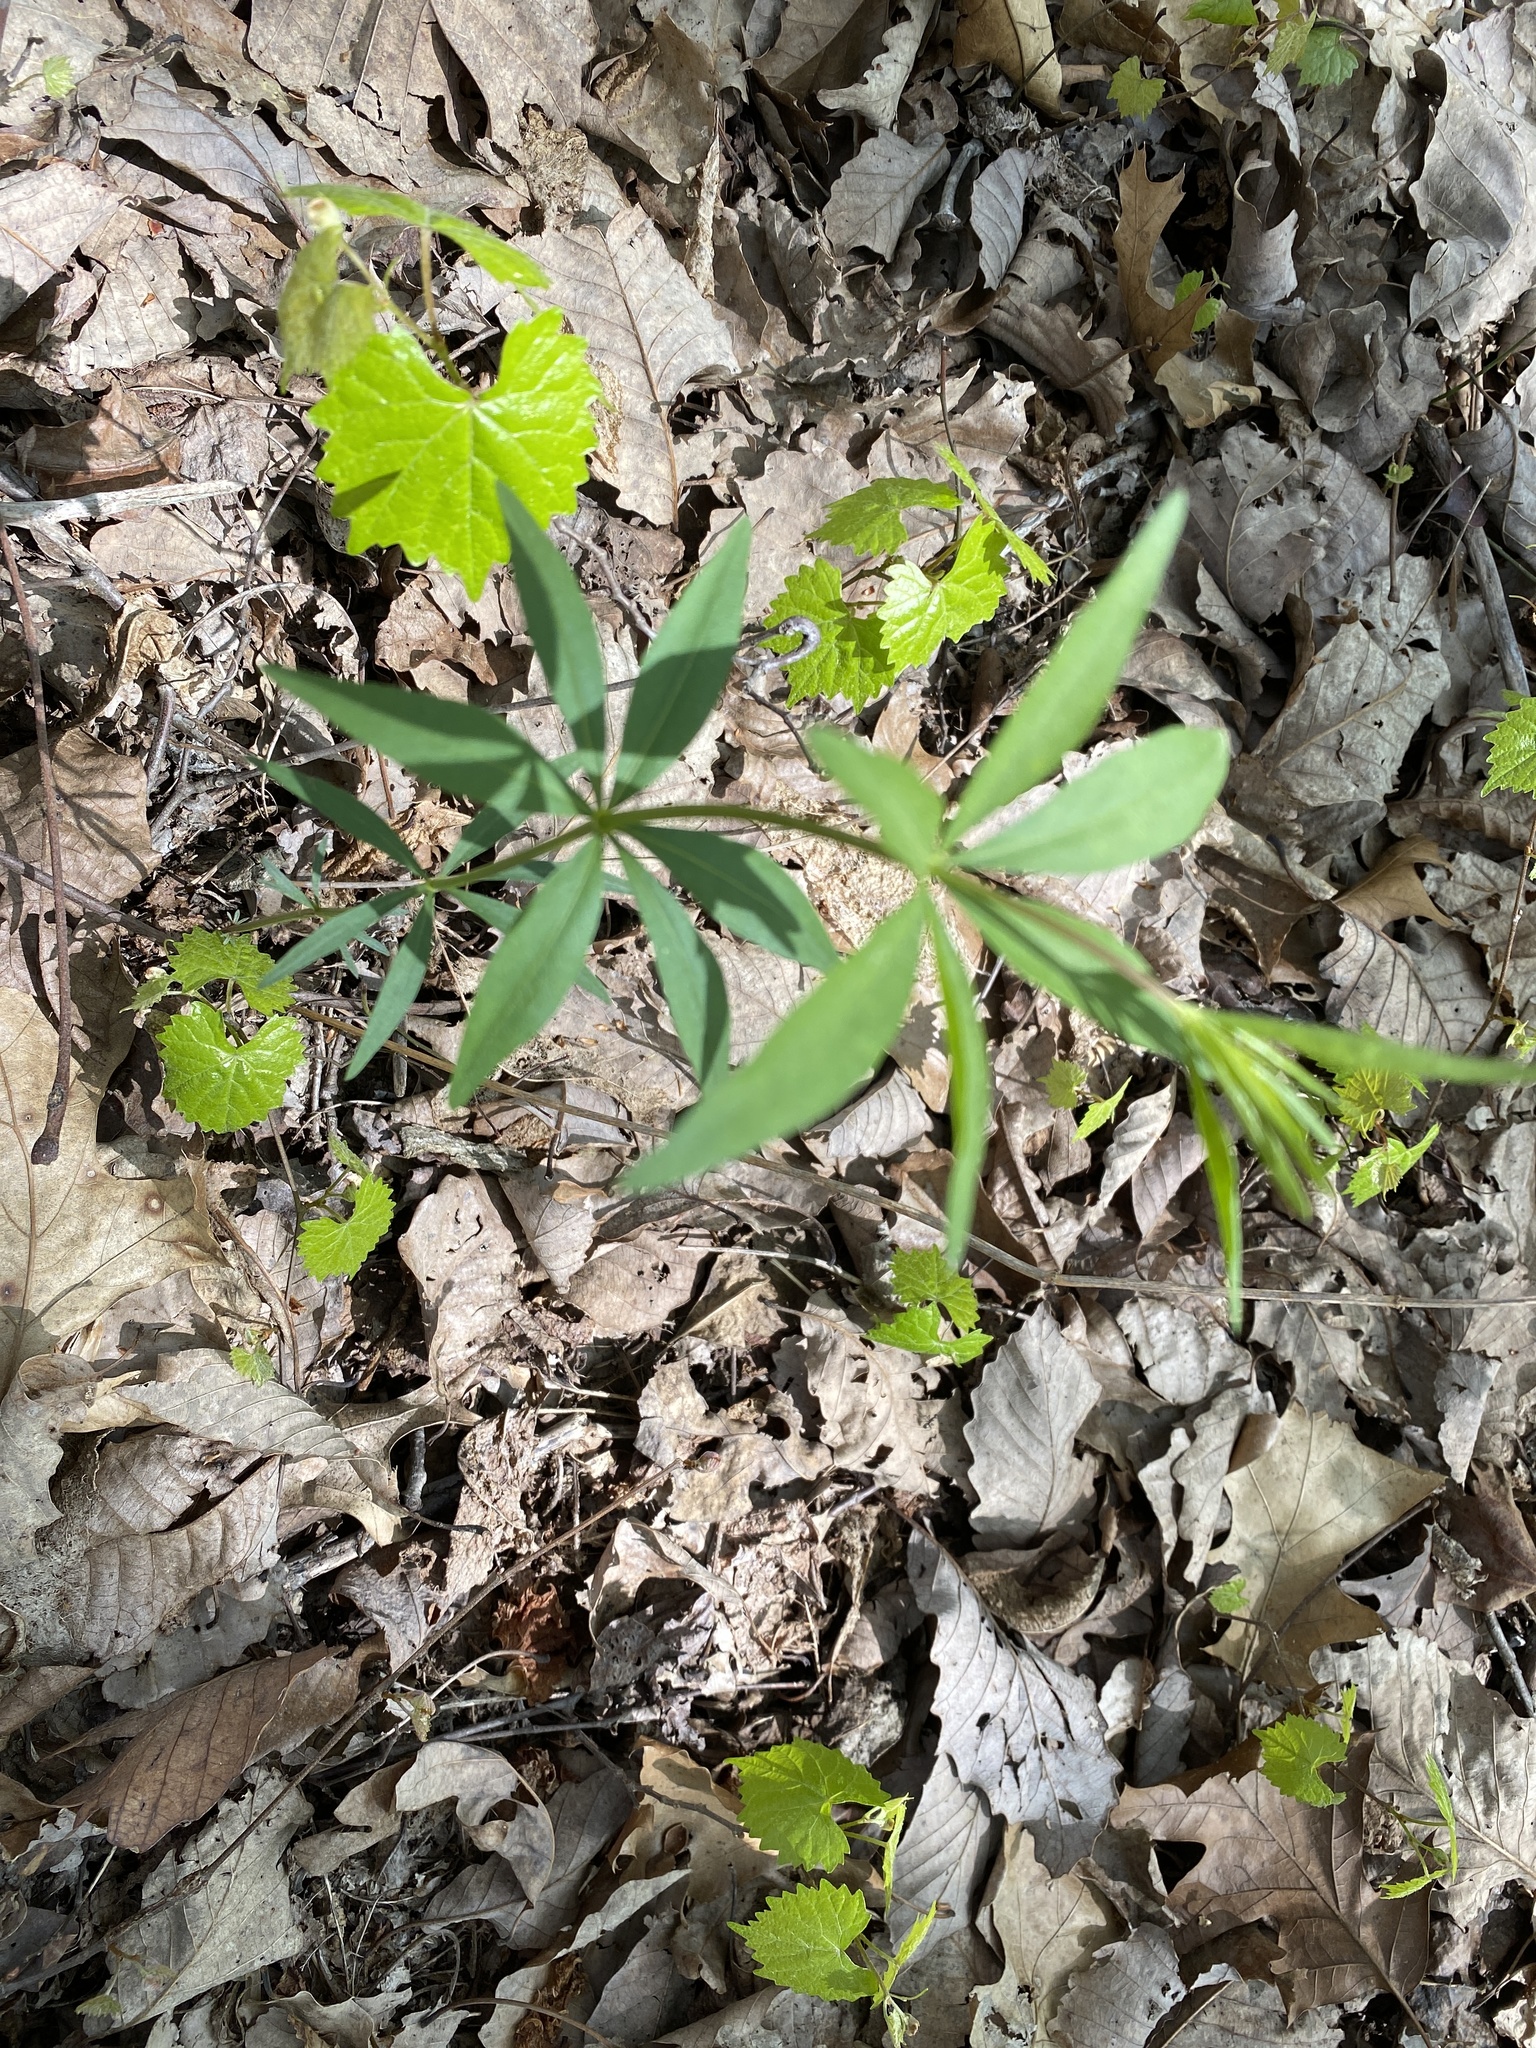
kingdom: Plantae
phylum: Tracheophyta
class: Magnoliopsida
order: Asterales
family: Asteraceae
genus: Coreopsis
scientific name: Coreopsis major
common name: Forest tickseed
